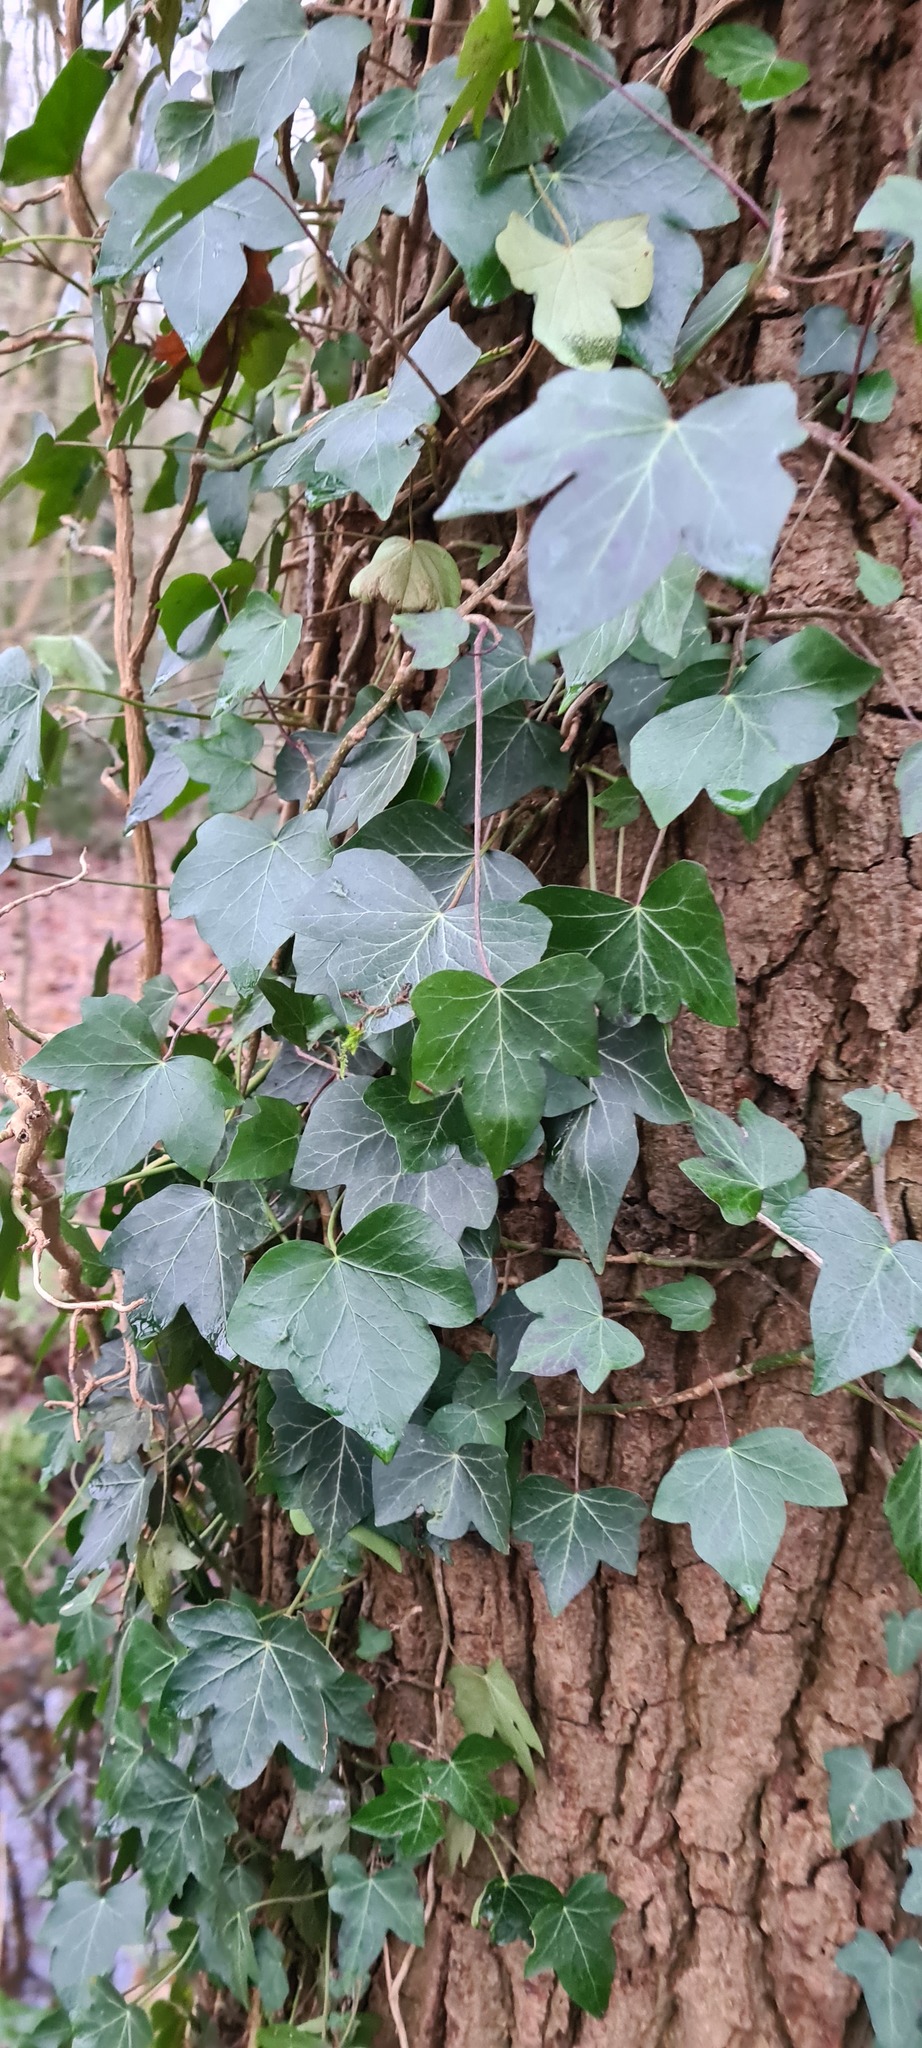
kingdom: Plantae
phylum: Tracheophyta
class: Magnoliopsida
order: Apiales
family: Araliaceae
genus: Hedera
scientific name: Hedera helix
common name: Ivy
